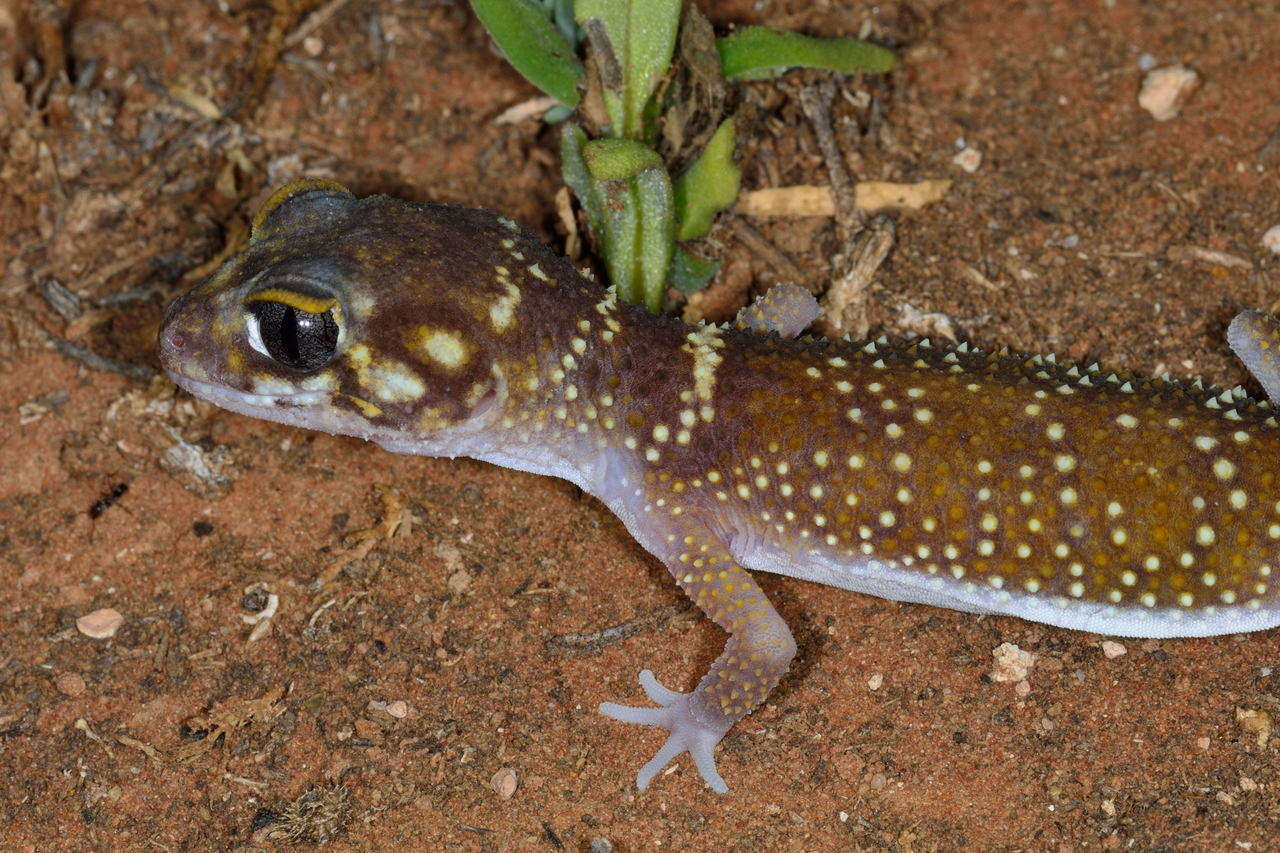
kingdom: Animalia
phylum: Chordata
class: Squamata
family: Carphodactylidae
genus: Underwoodisaurus
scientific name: Underwoodisaurus milii
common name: Barking gecko
